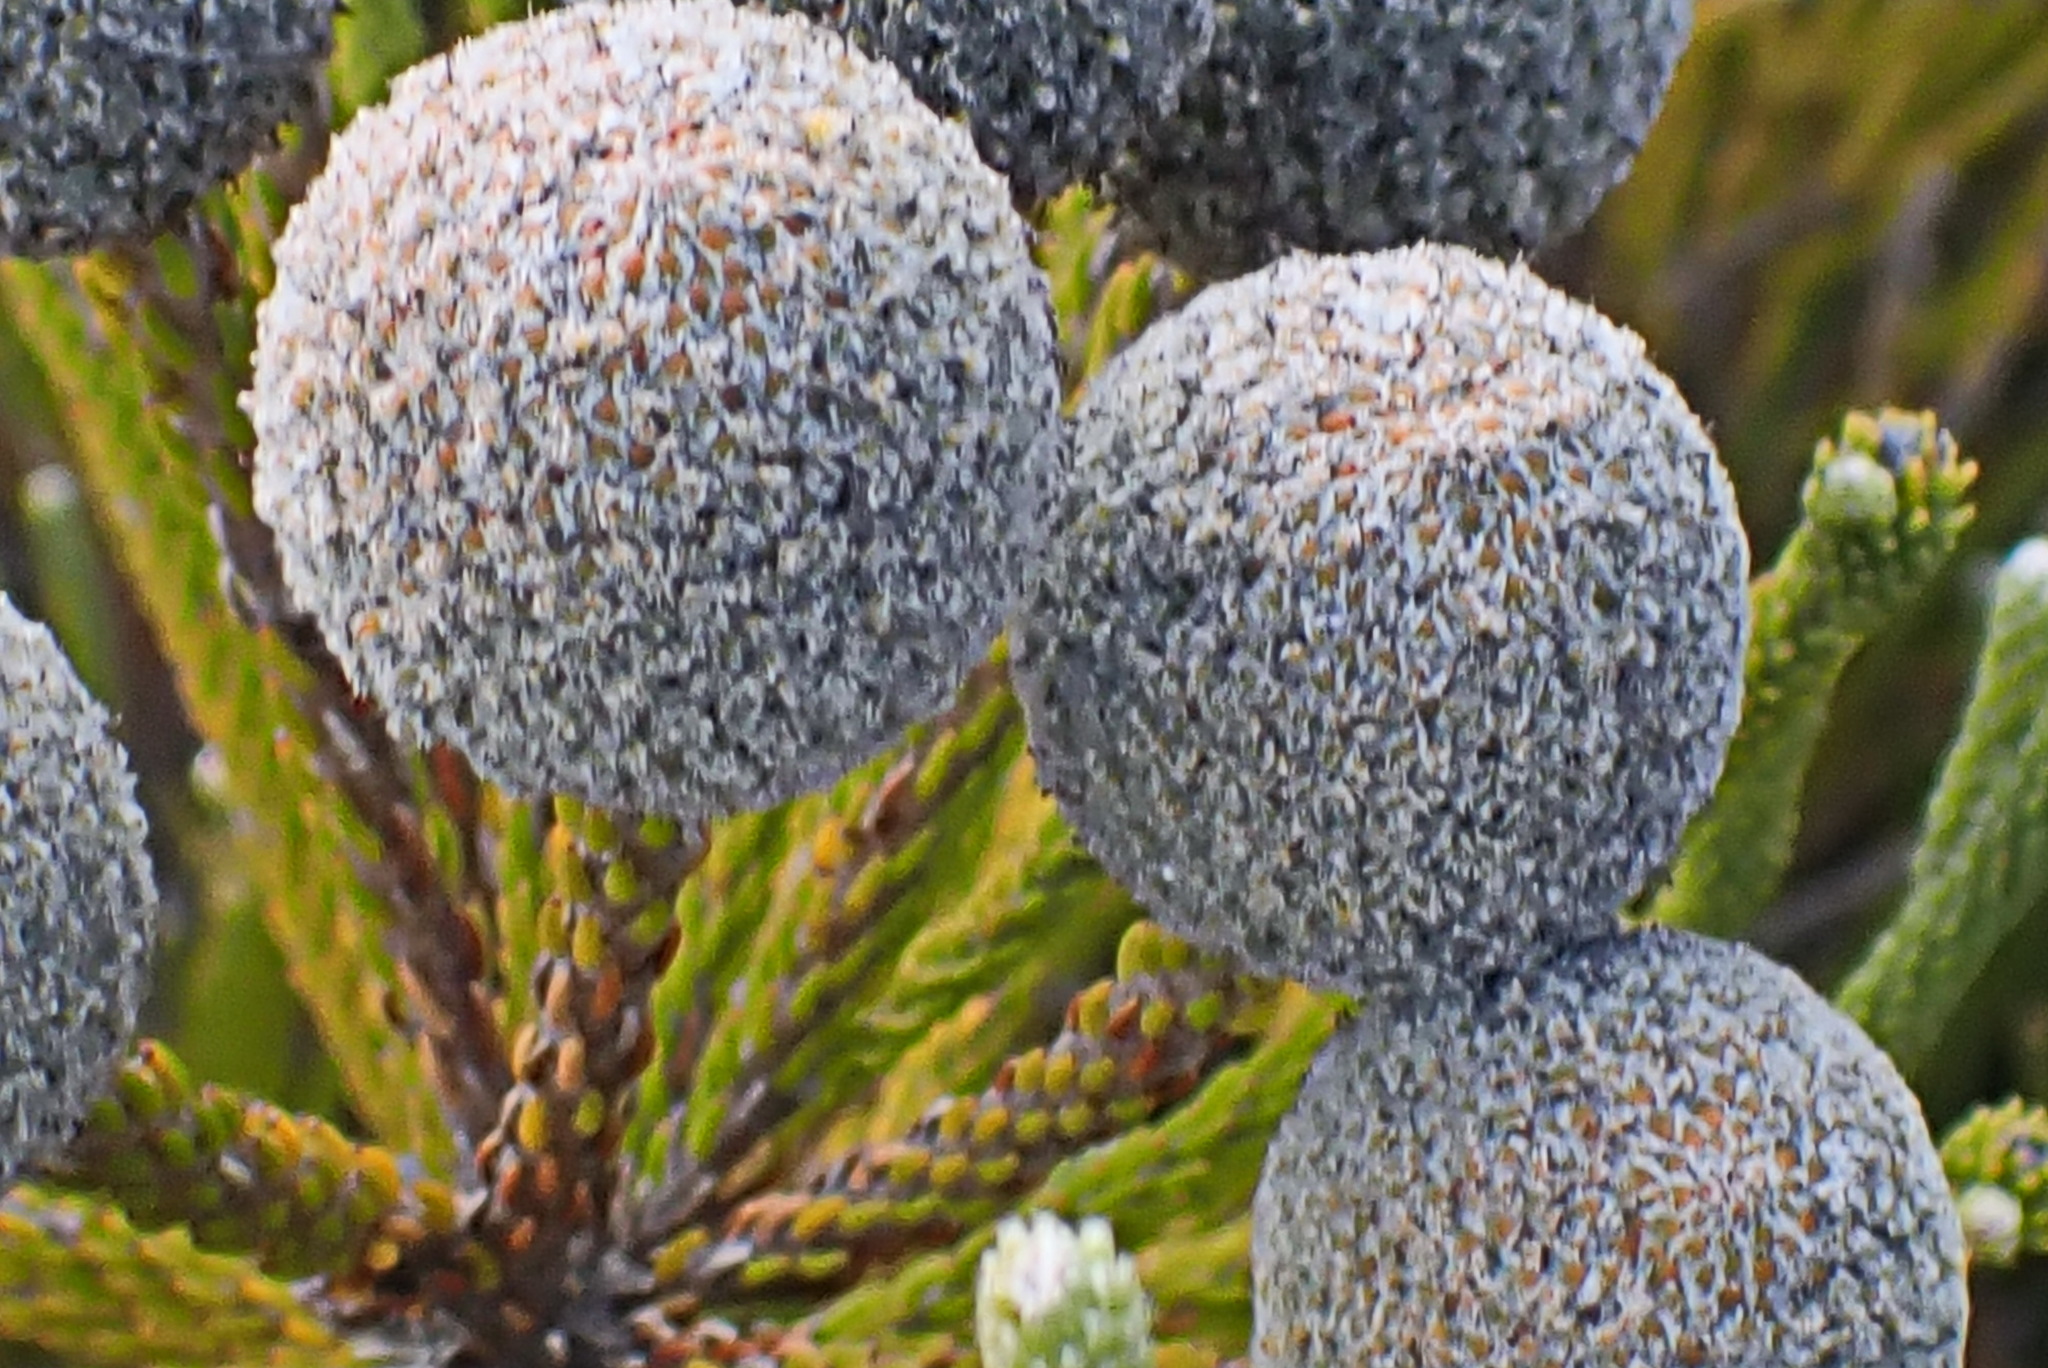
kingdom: Plantae
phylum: Tracheophyta
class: Magnoliopsida
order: Bruniales
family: Bruniaceae
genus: Brunia
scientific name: Brunia noduliflora
